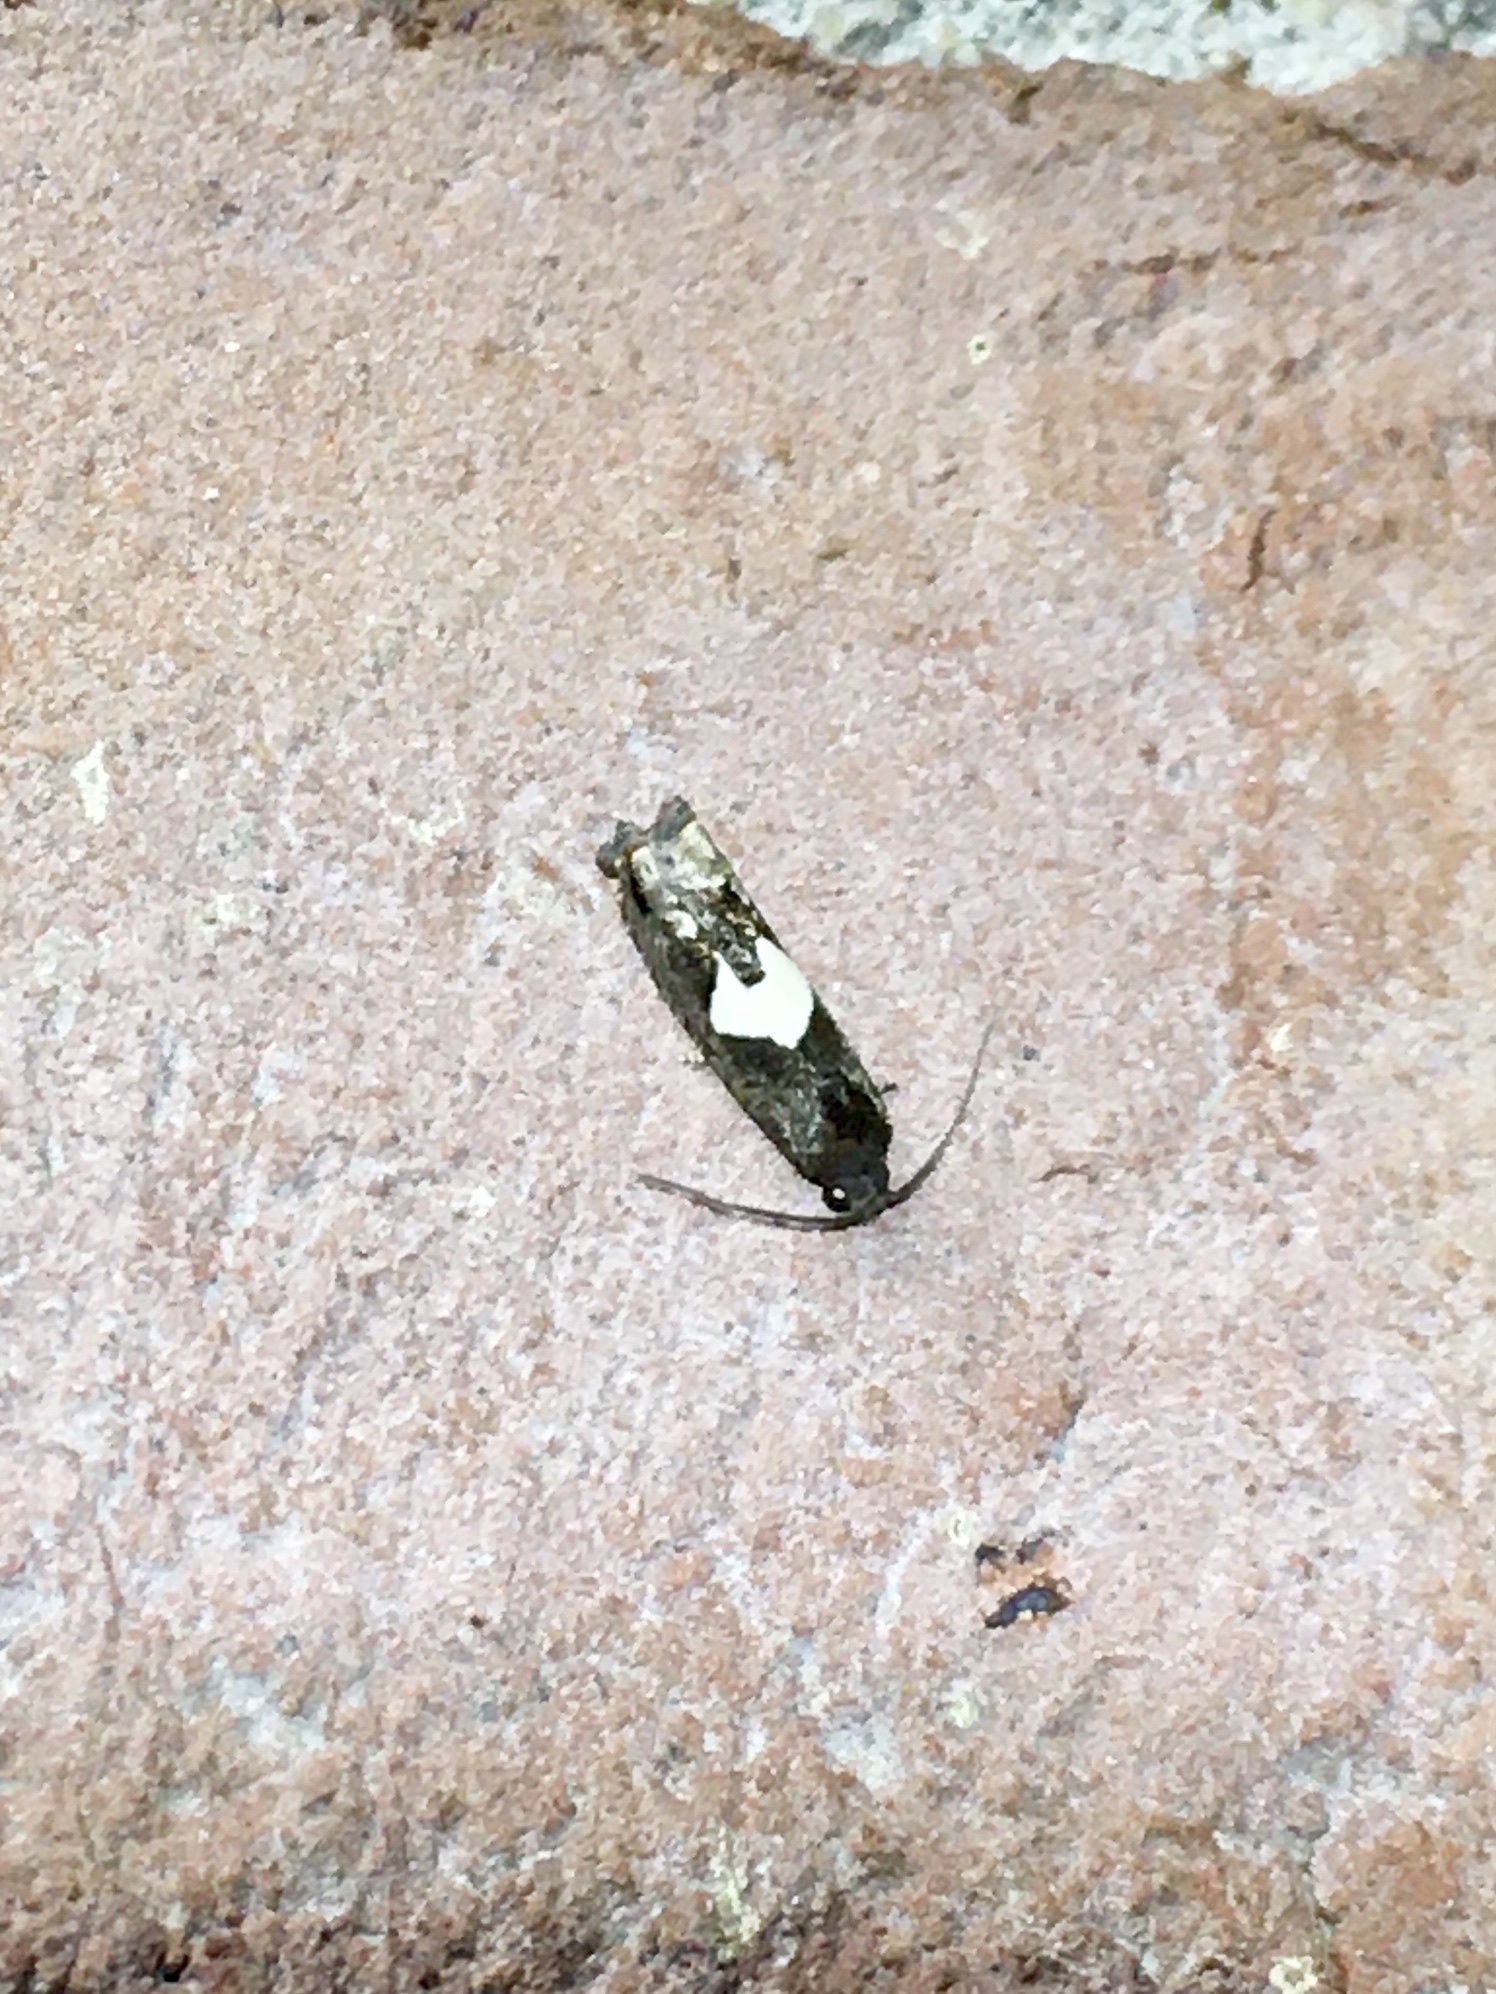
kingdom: Animalia
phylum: Arthropoda
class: Insecta
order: Lepidoptera
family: Tortricidae
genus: Epiblema
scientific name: Epiblema otiosana
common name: Bidens borer moth
